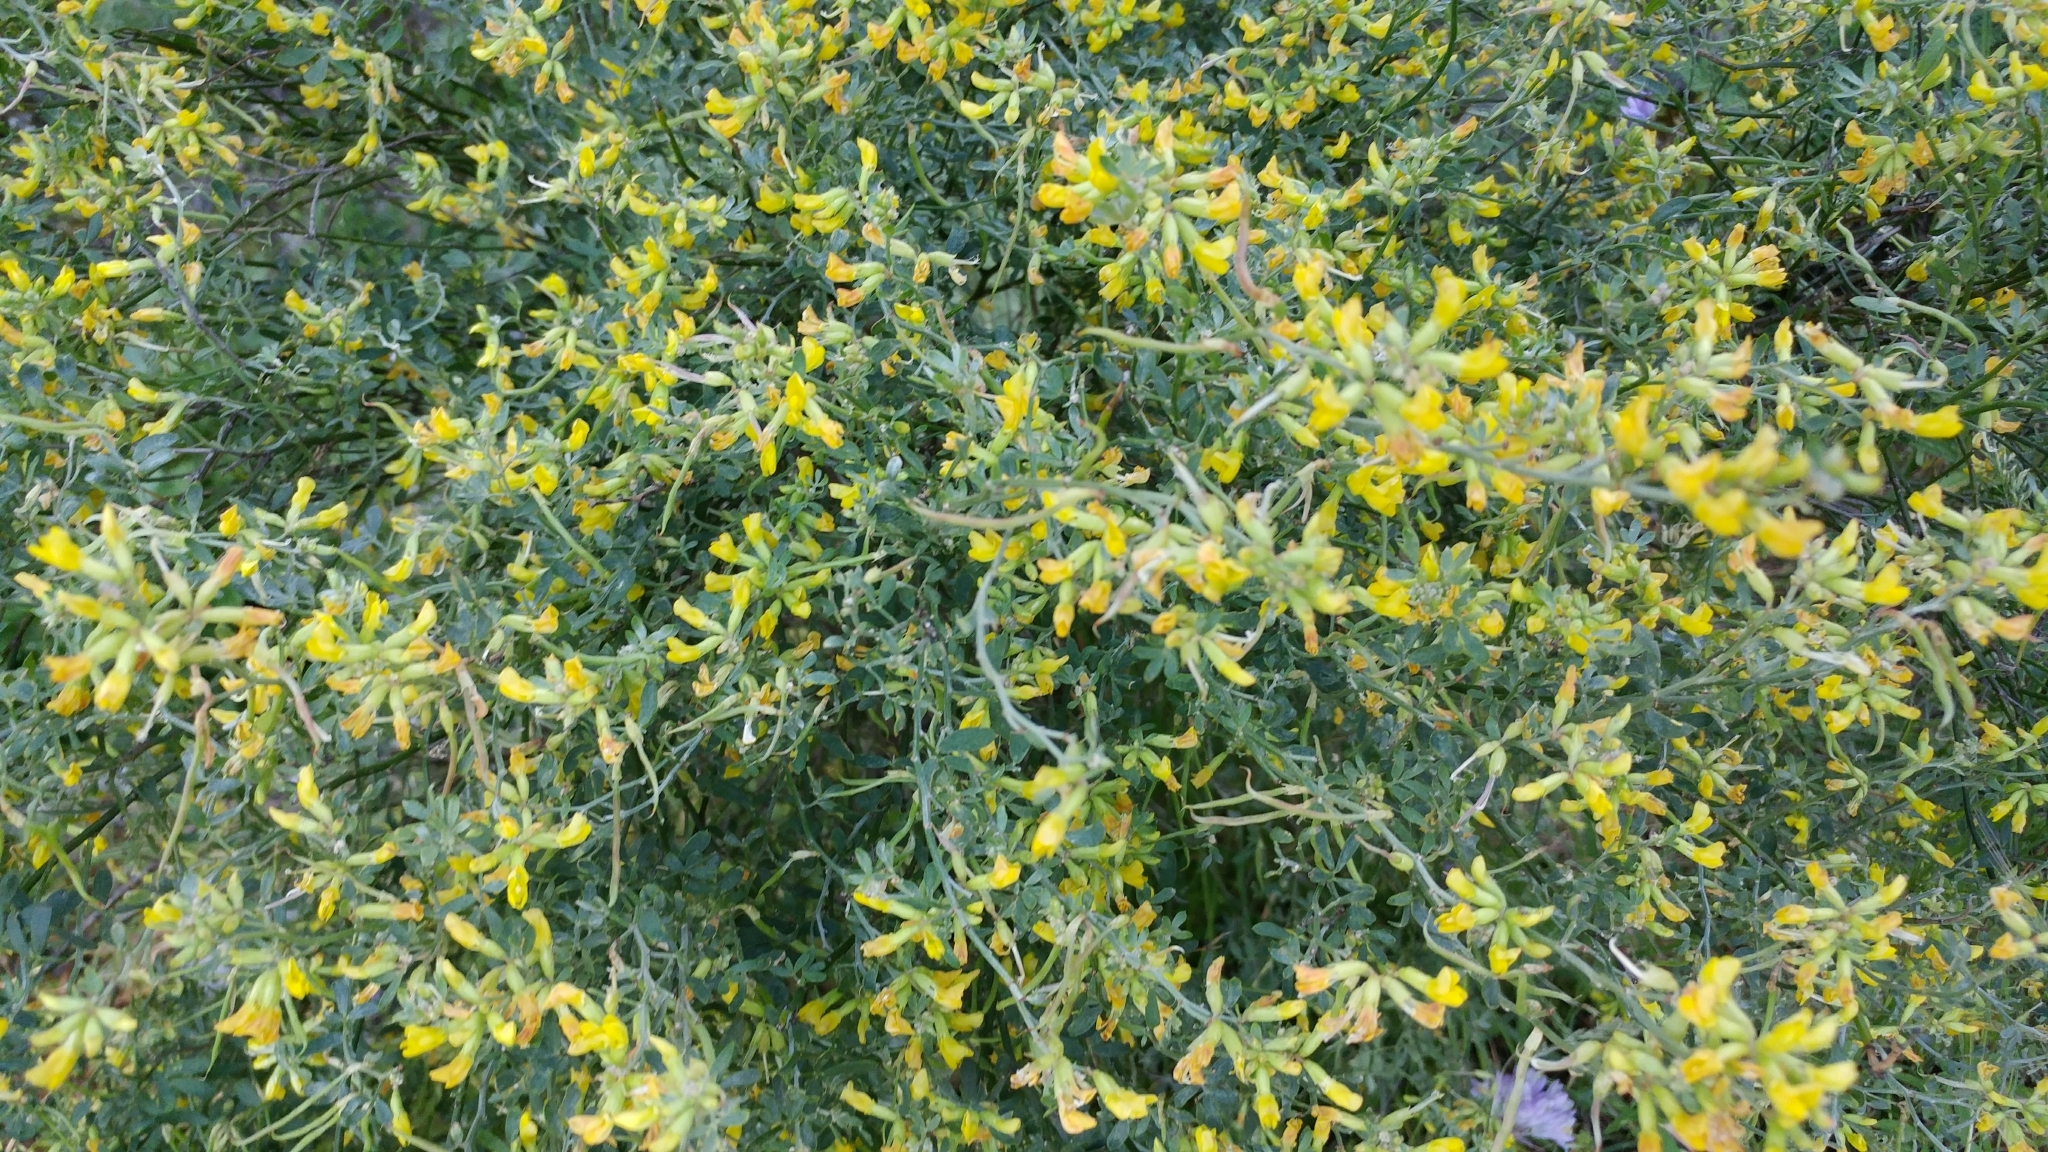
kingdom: Plantae
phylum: Tracheophyta
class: Magnoliopsida
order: Fabales
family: Fabaceae
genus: Acmispon
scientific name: Acmispon dendroideus
